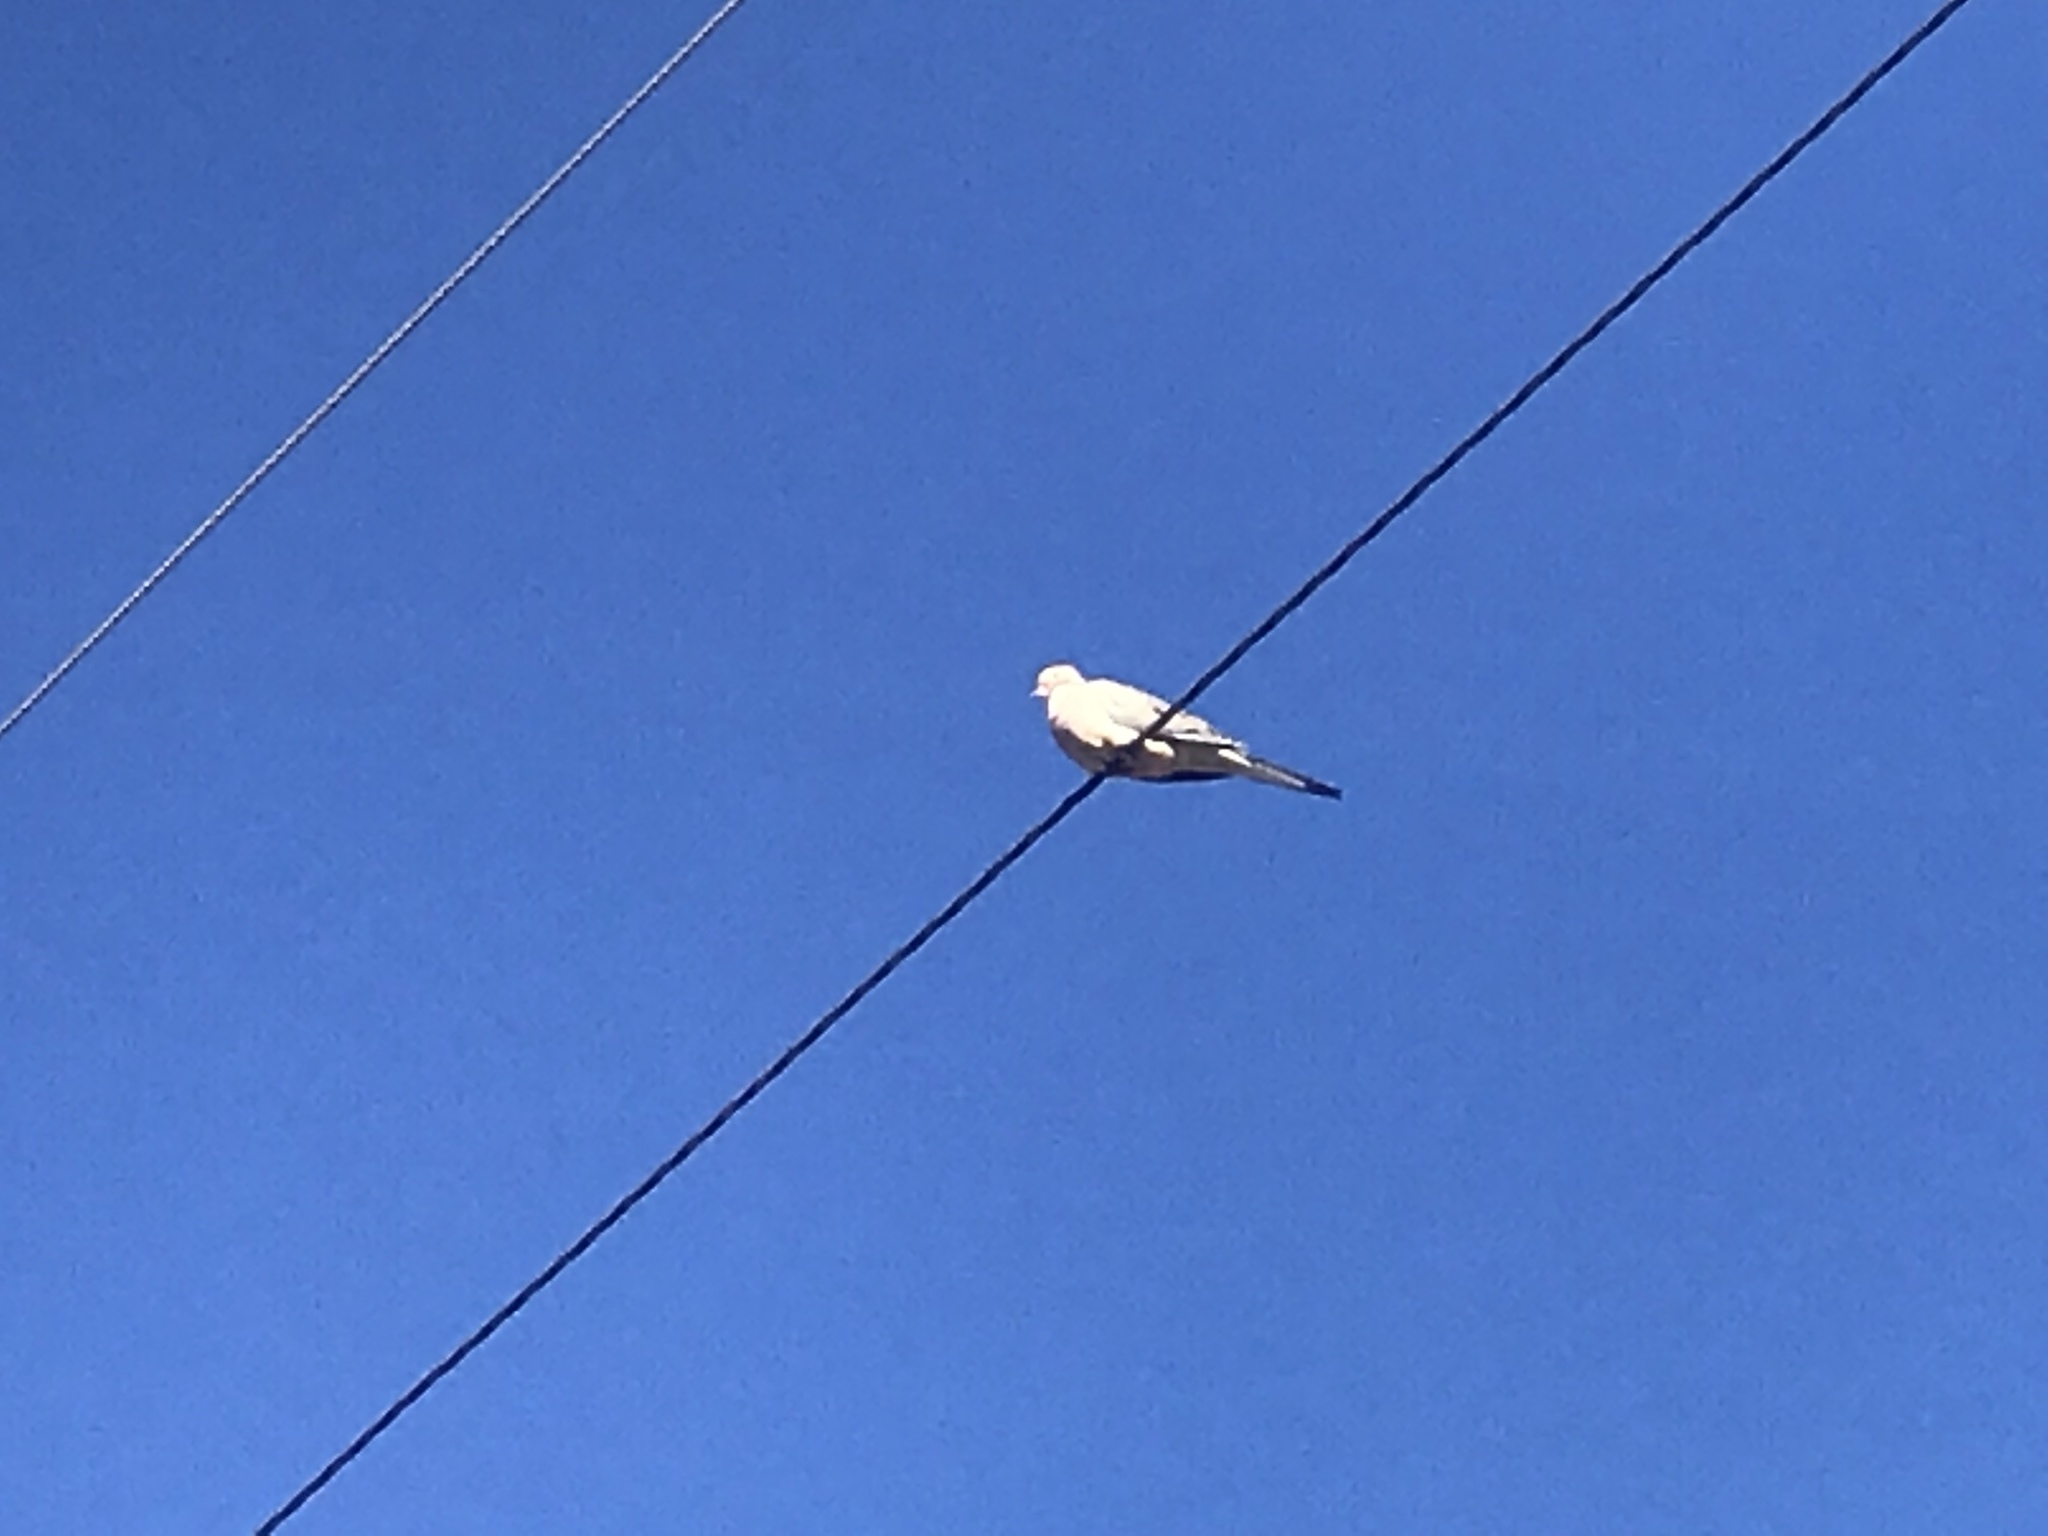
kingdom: Animalia
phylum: Chordata
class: Aves
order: Columbiformes
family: Columbidae
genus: Zenaida
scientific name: Zenaida macroura
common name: Mourning dove
